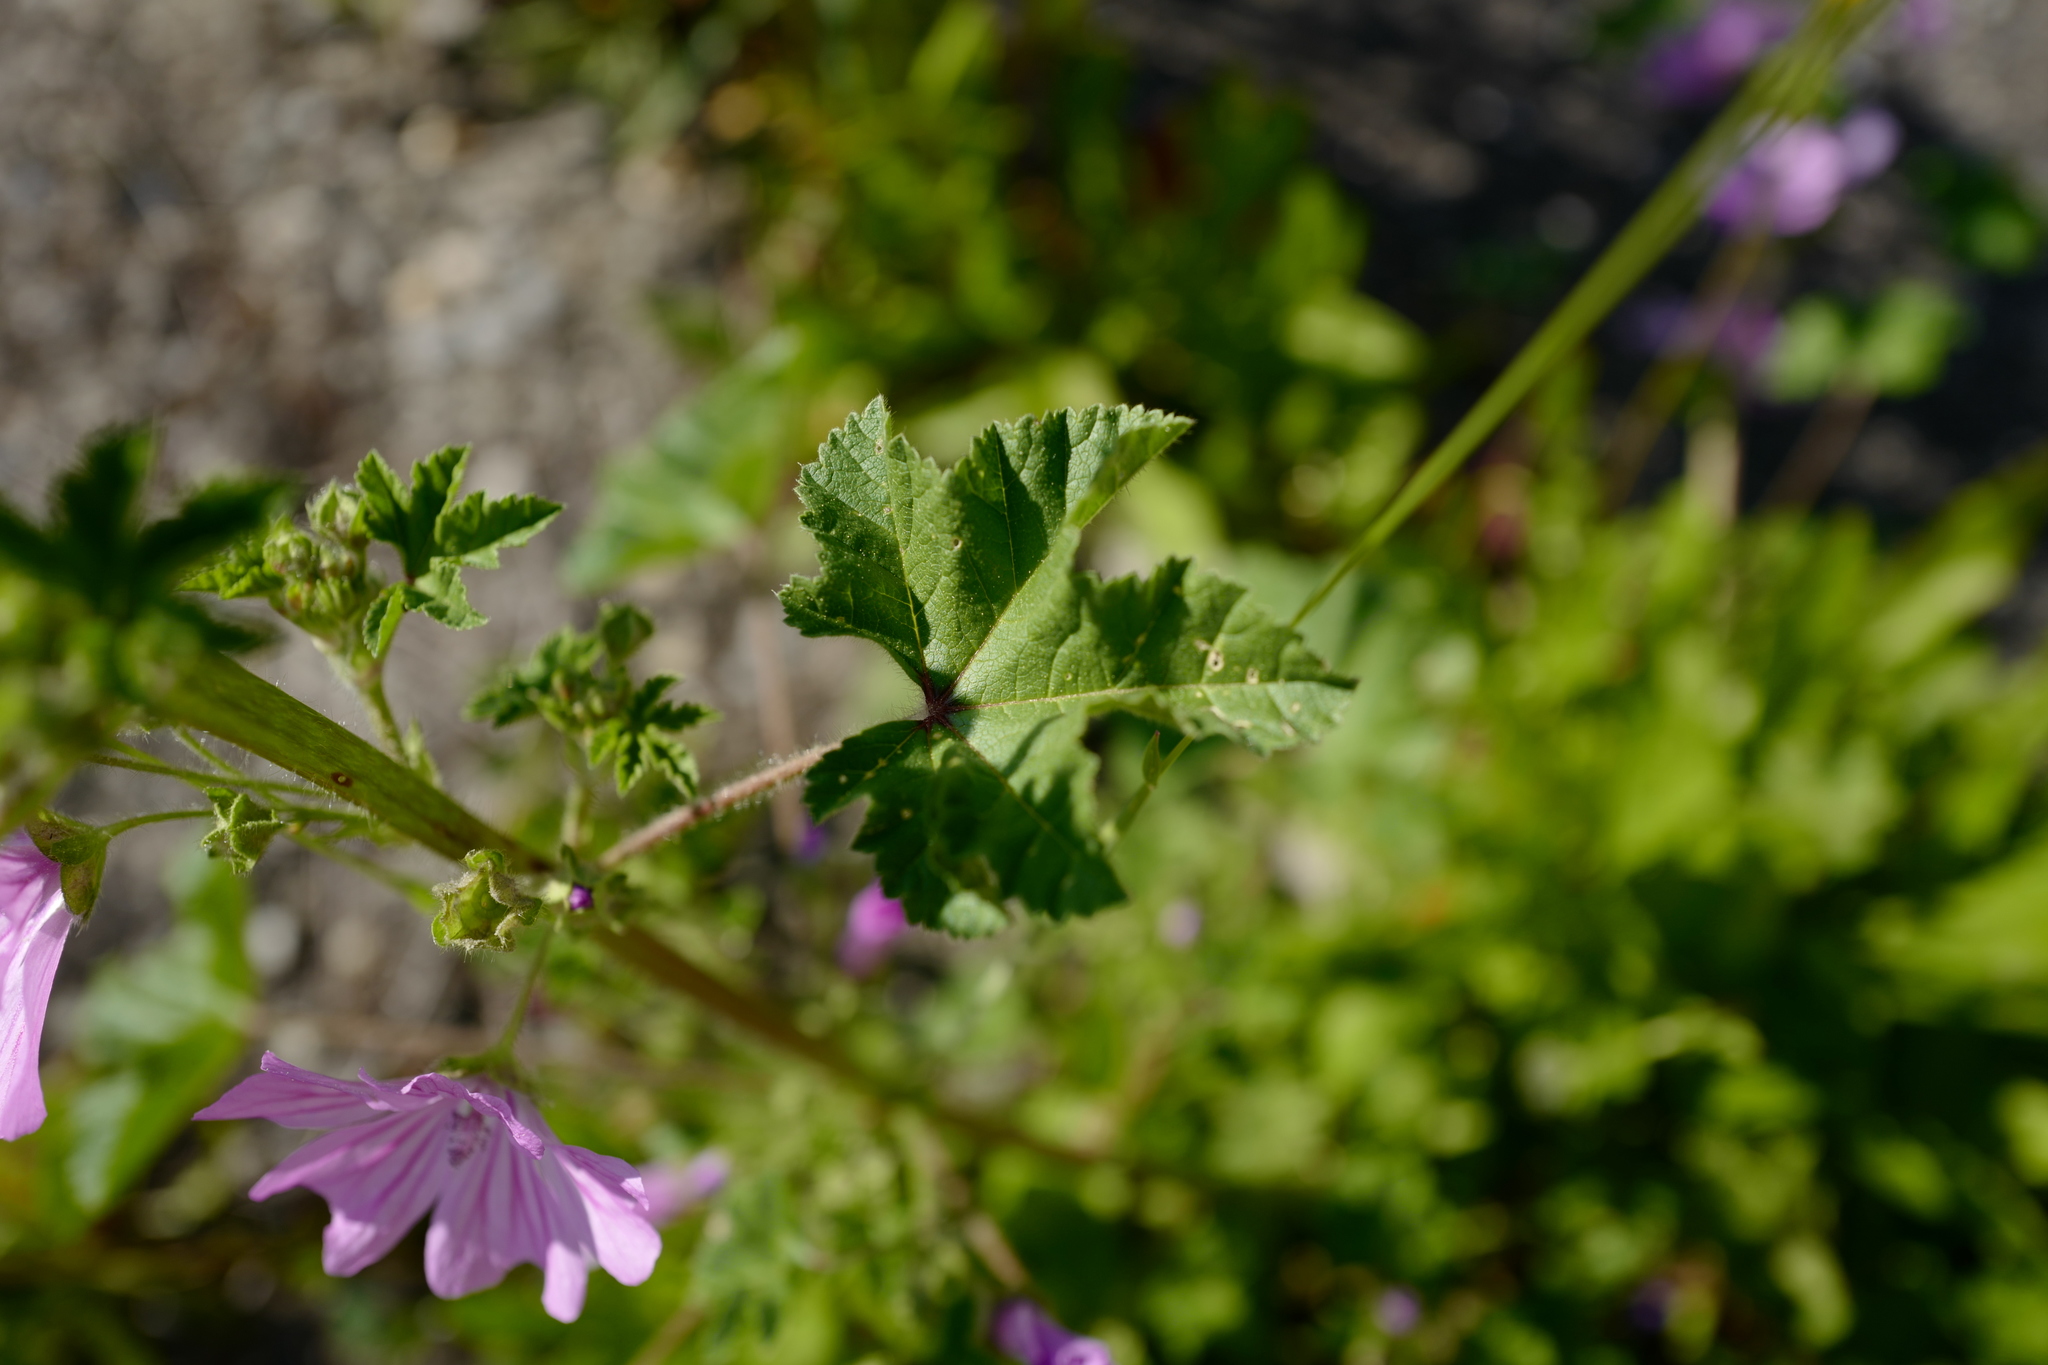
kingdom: Plantae
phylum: Tracheophyta
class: Magnoliopsida
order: Malvales
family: Malvaceae
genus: Malva
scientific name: Malva sylvestris
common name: Common mallow
